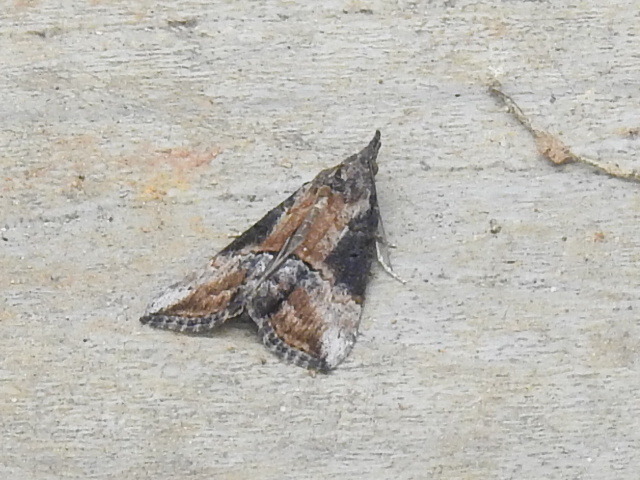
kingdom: Animalia
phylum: Arthropoda
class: Insecta
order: Lepidoptera
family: Erebidae
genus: Hypena
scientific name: Hypena scabra
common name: Green cloverworm
